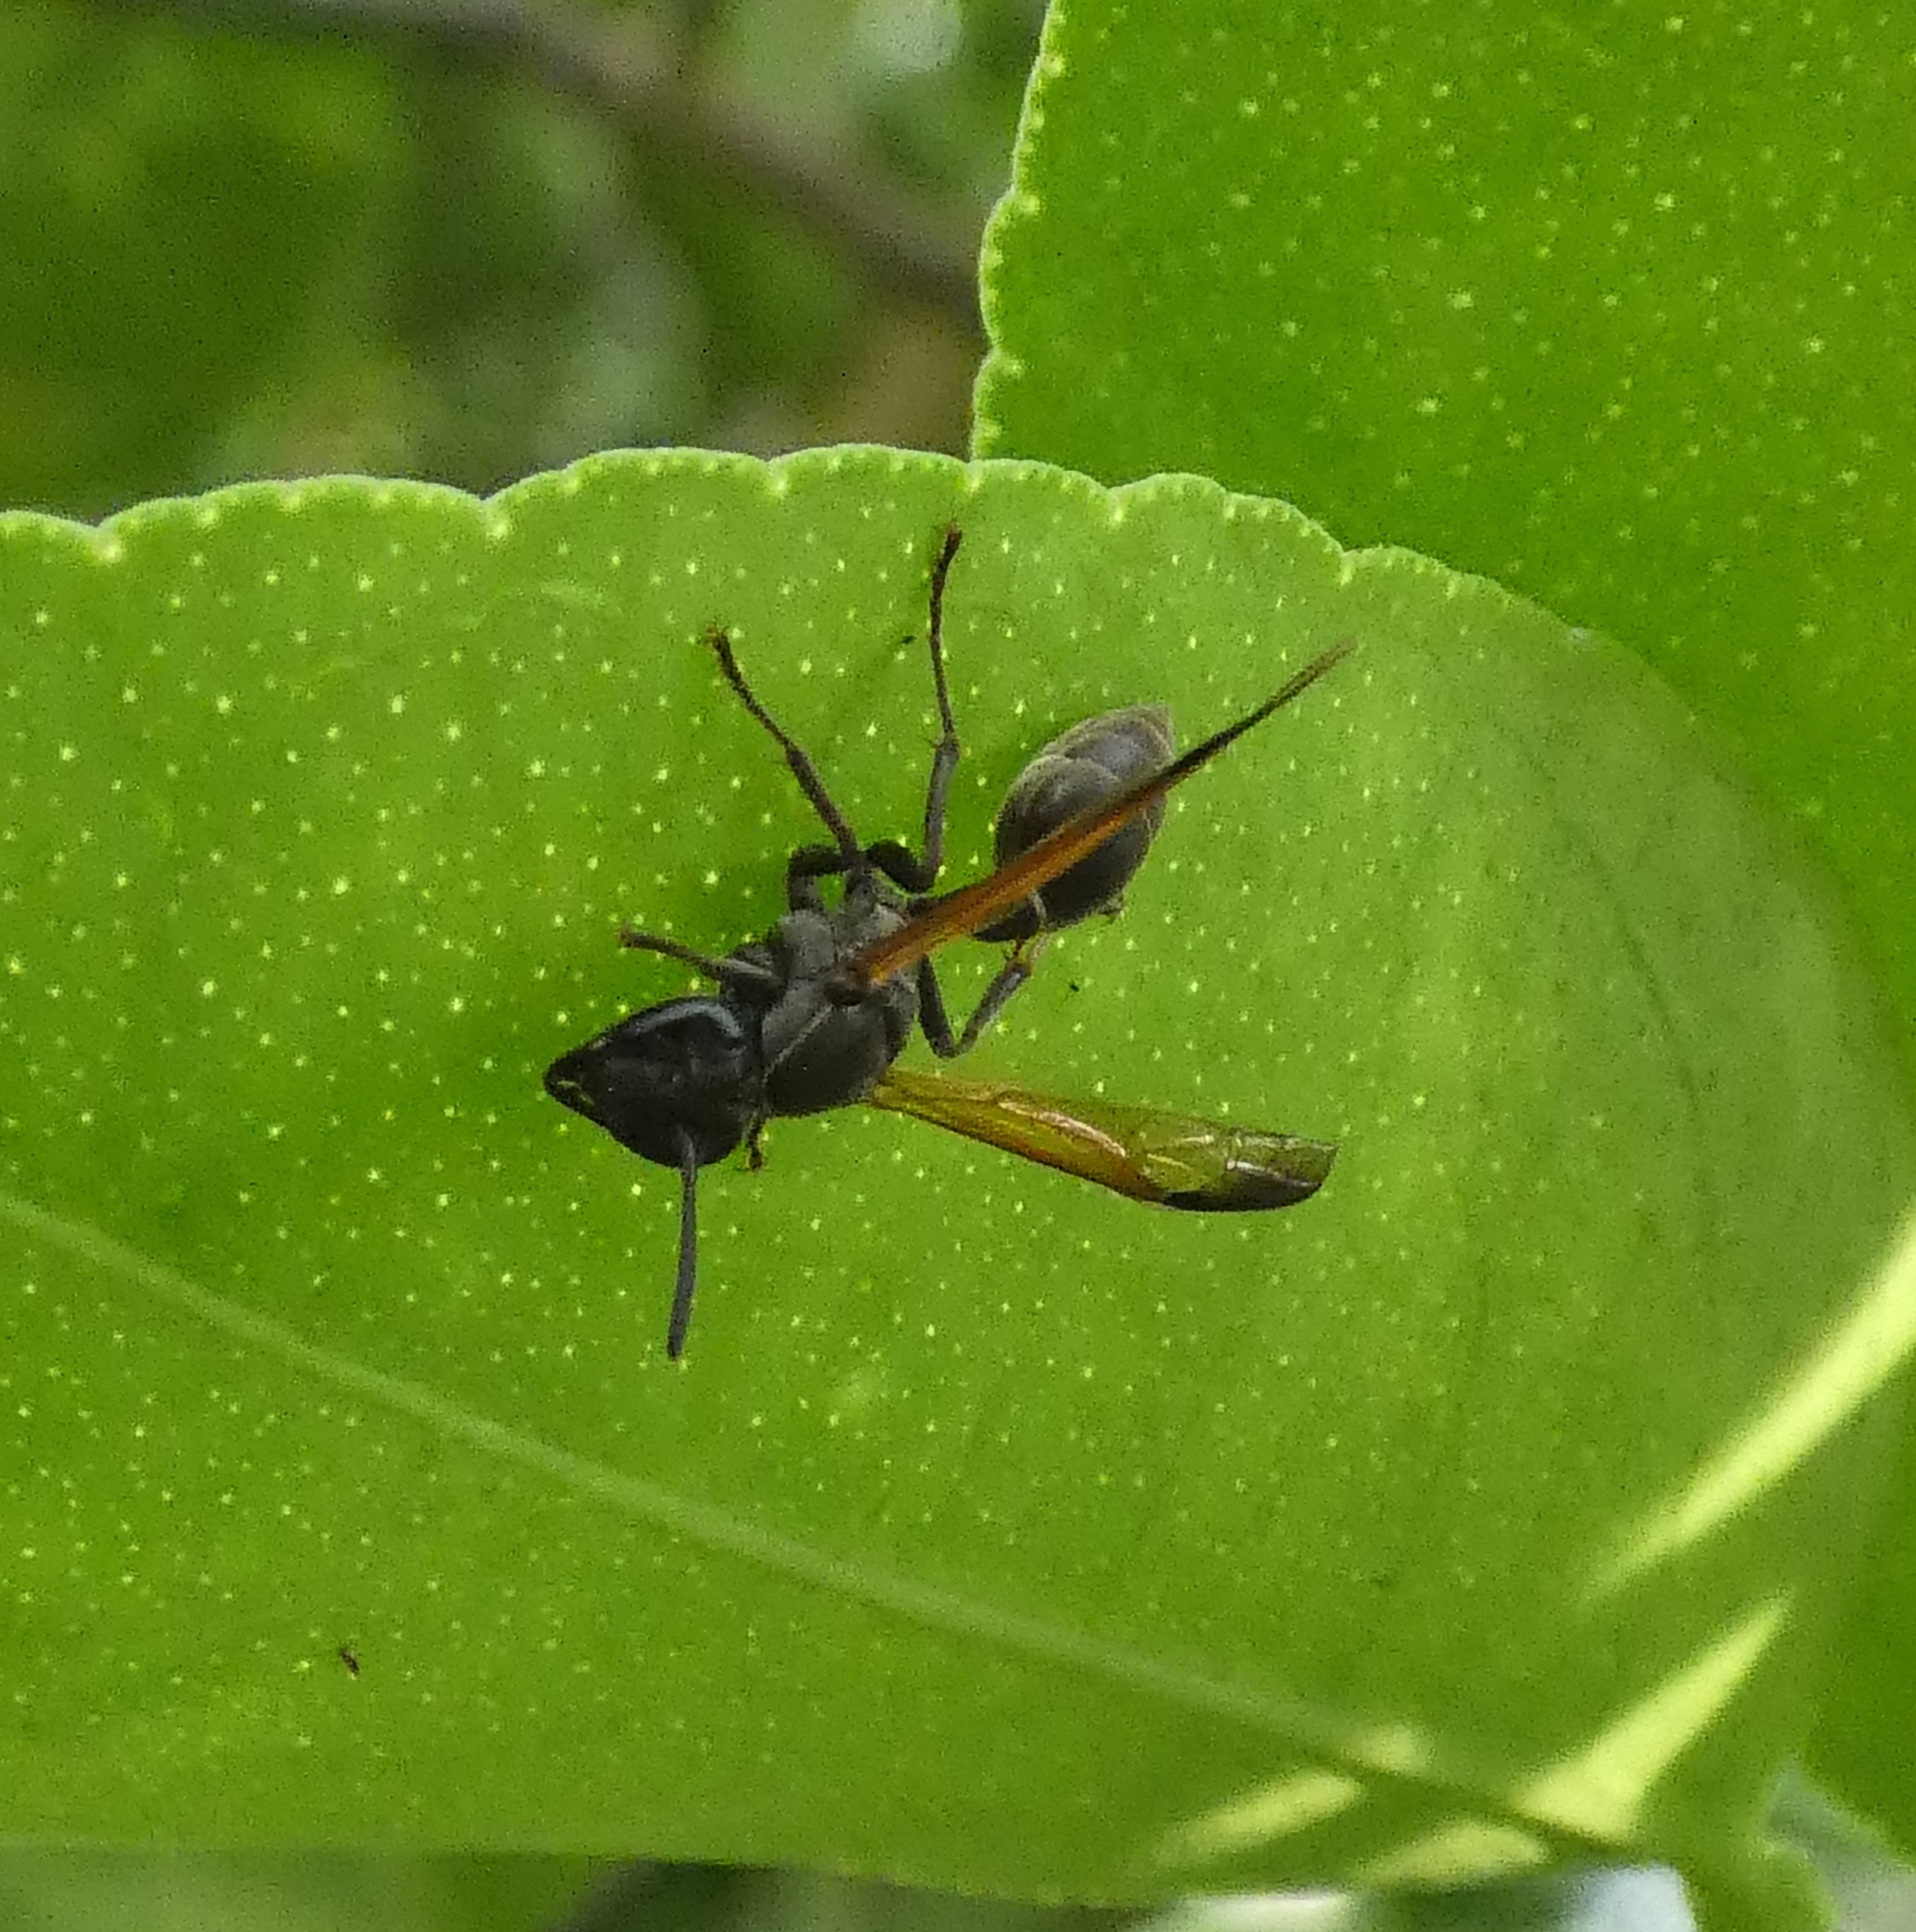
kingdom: Animalia
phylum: Arthropoda
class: Insecta
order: Hymenoptera
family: Eumenidae
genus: Polybia
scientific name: Polybia rejecta
